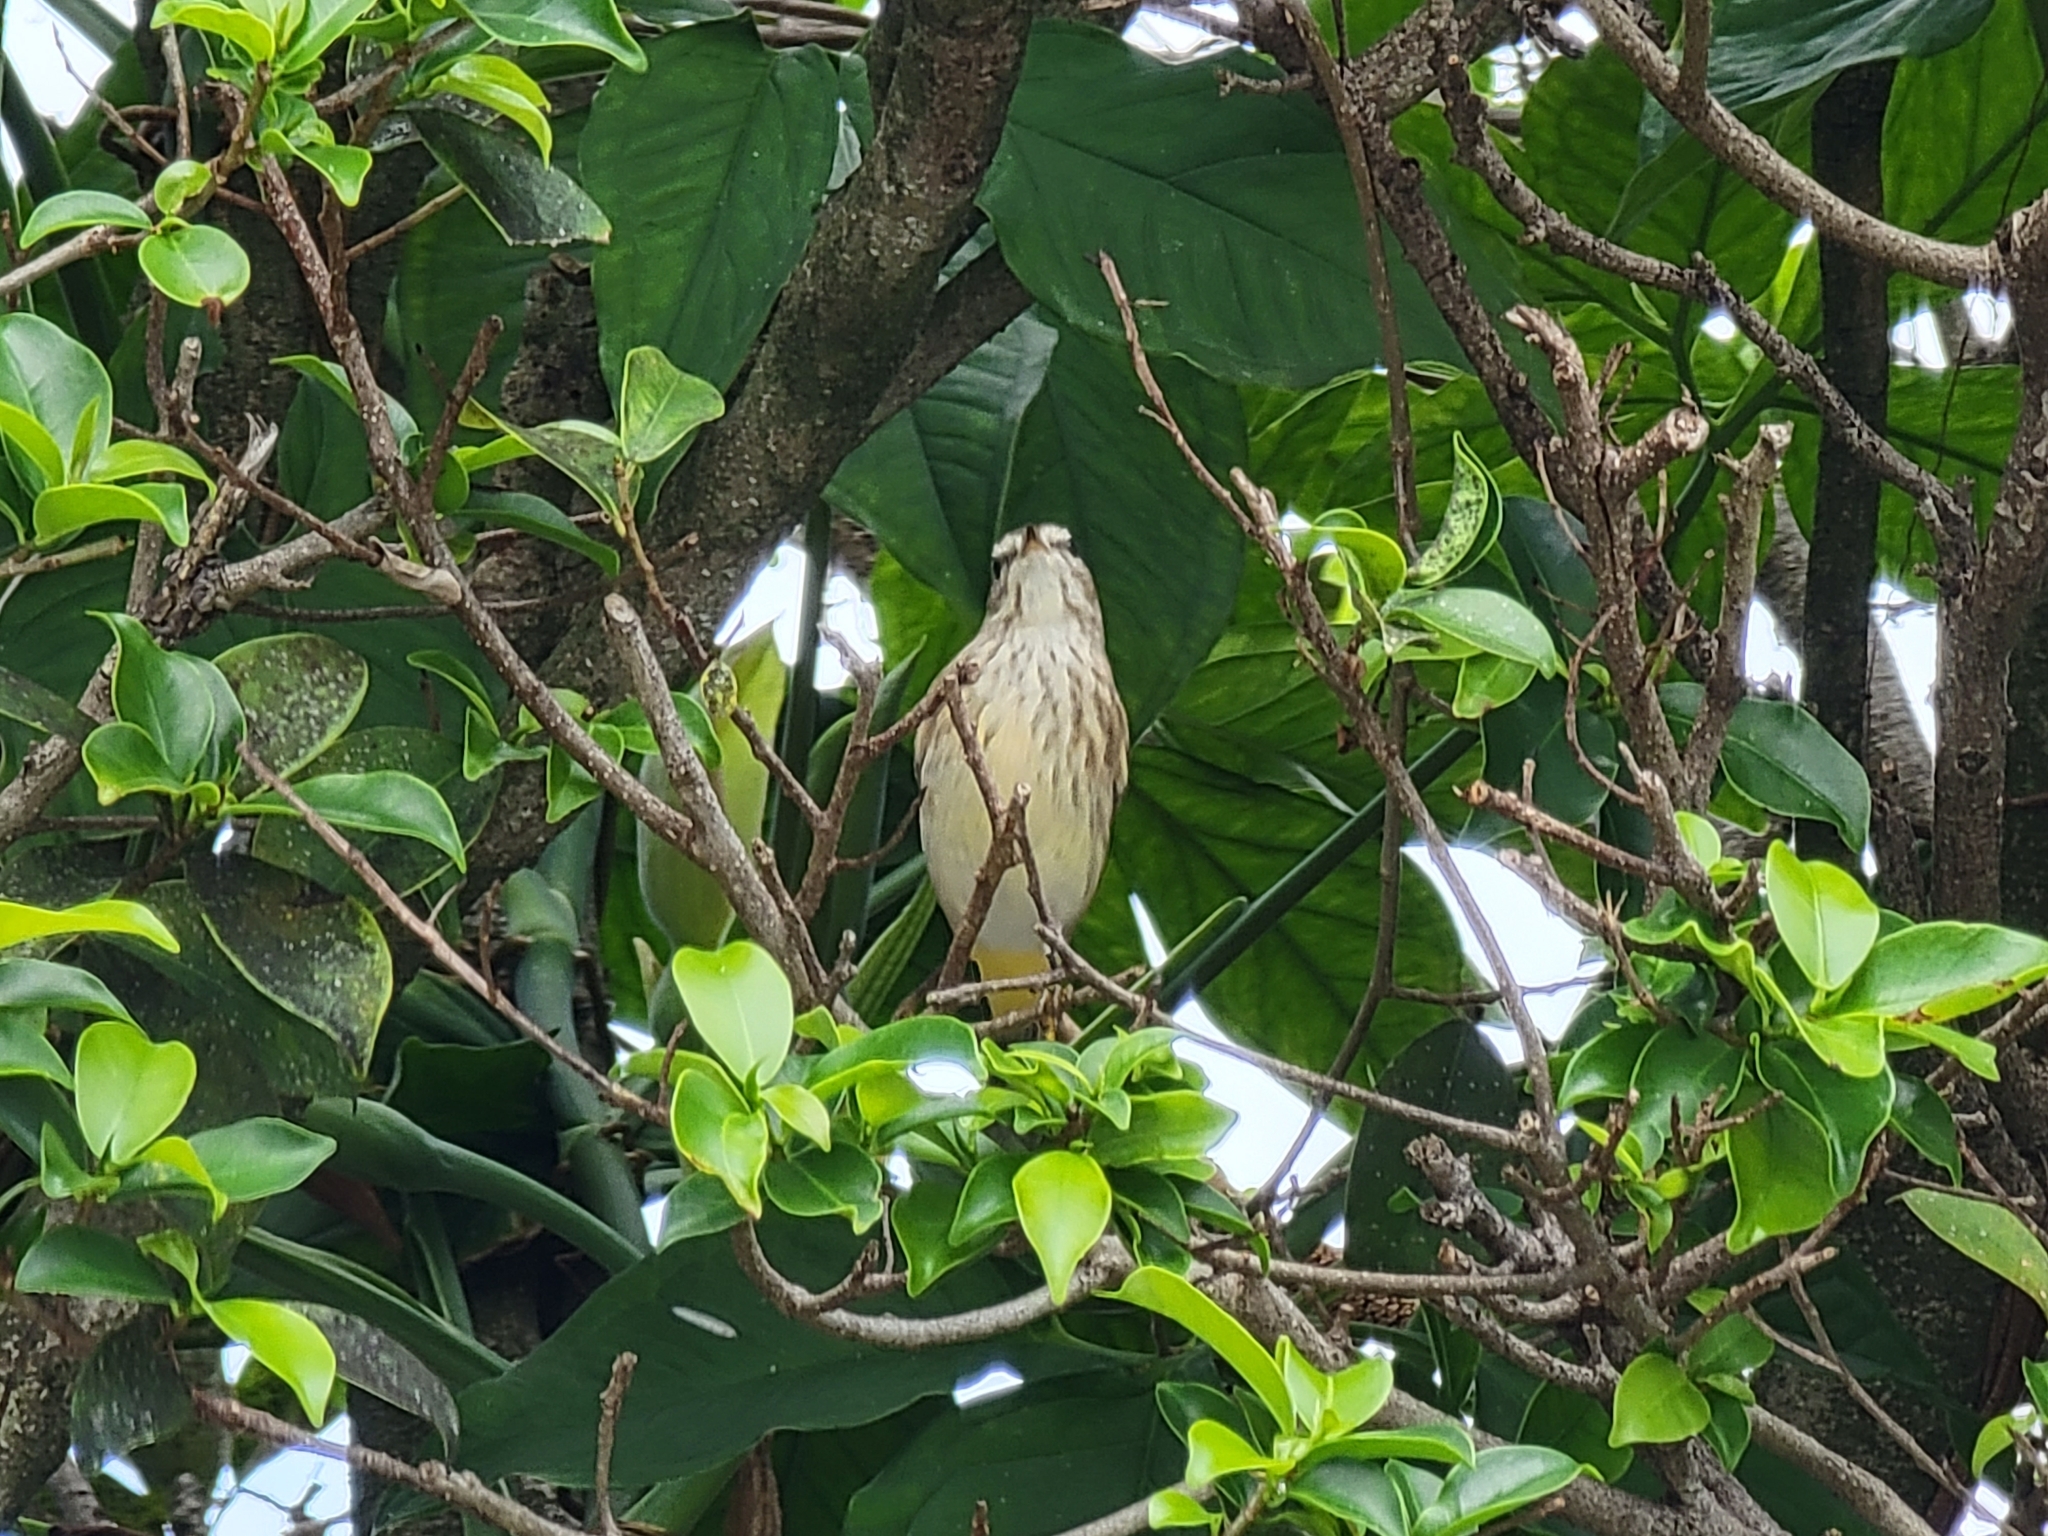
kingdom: Animalia
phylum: Chordata
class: Aves
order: Passeriformes
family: Parulidae
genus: Setophaga
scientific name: Setophaga palmarum
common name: Palm warbler
